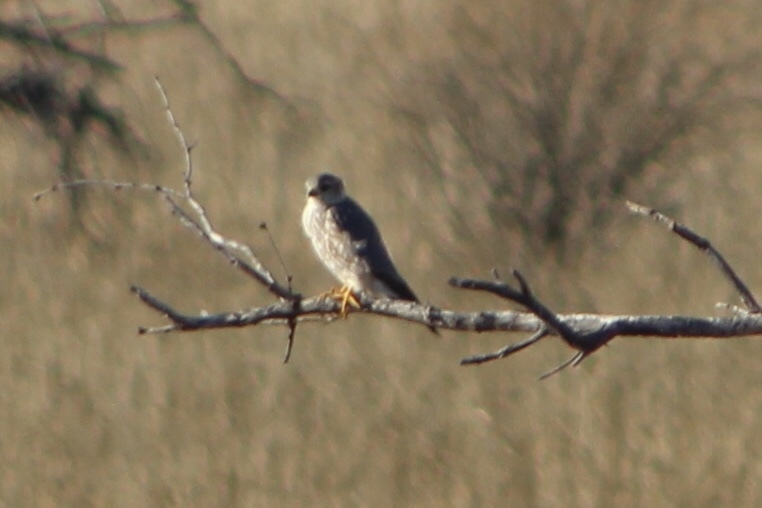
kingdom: Animalia
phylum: Chordata
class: Aves
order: Falconiformes
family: Falconidae
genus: Falco
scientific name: Falco columbarius
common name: Merlin
